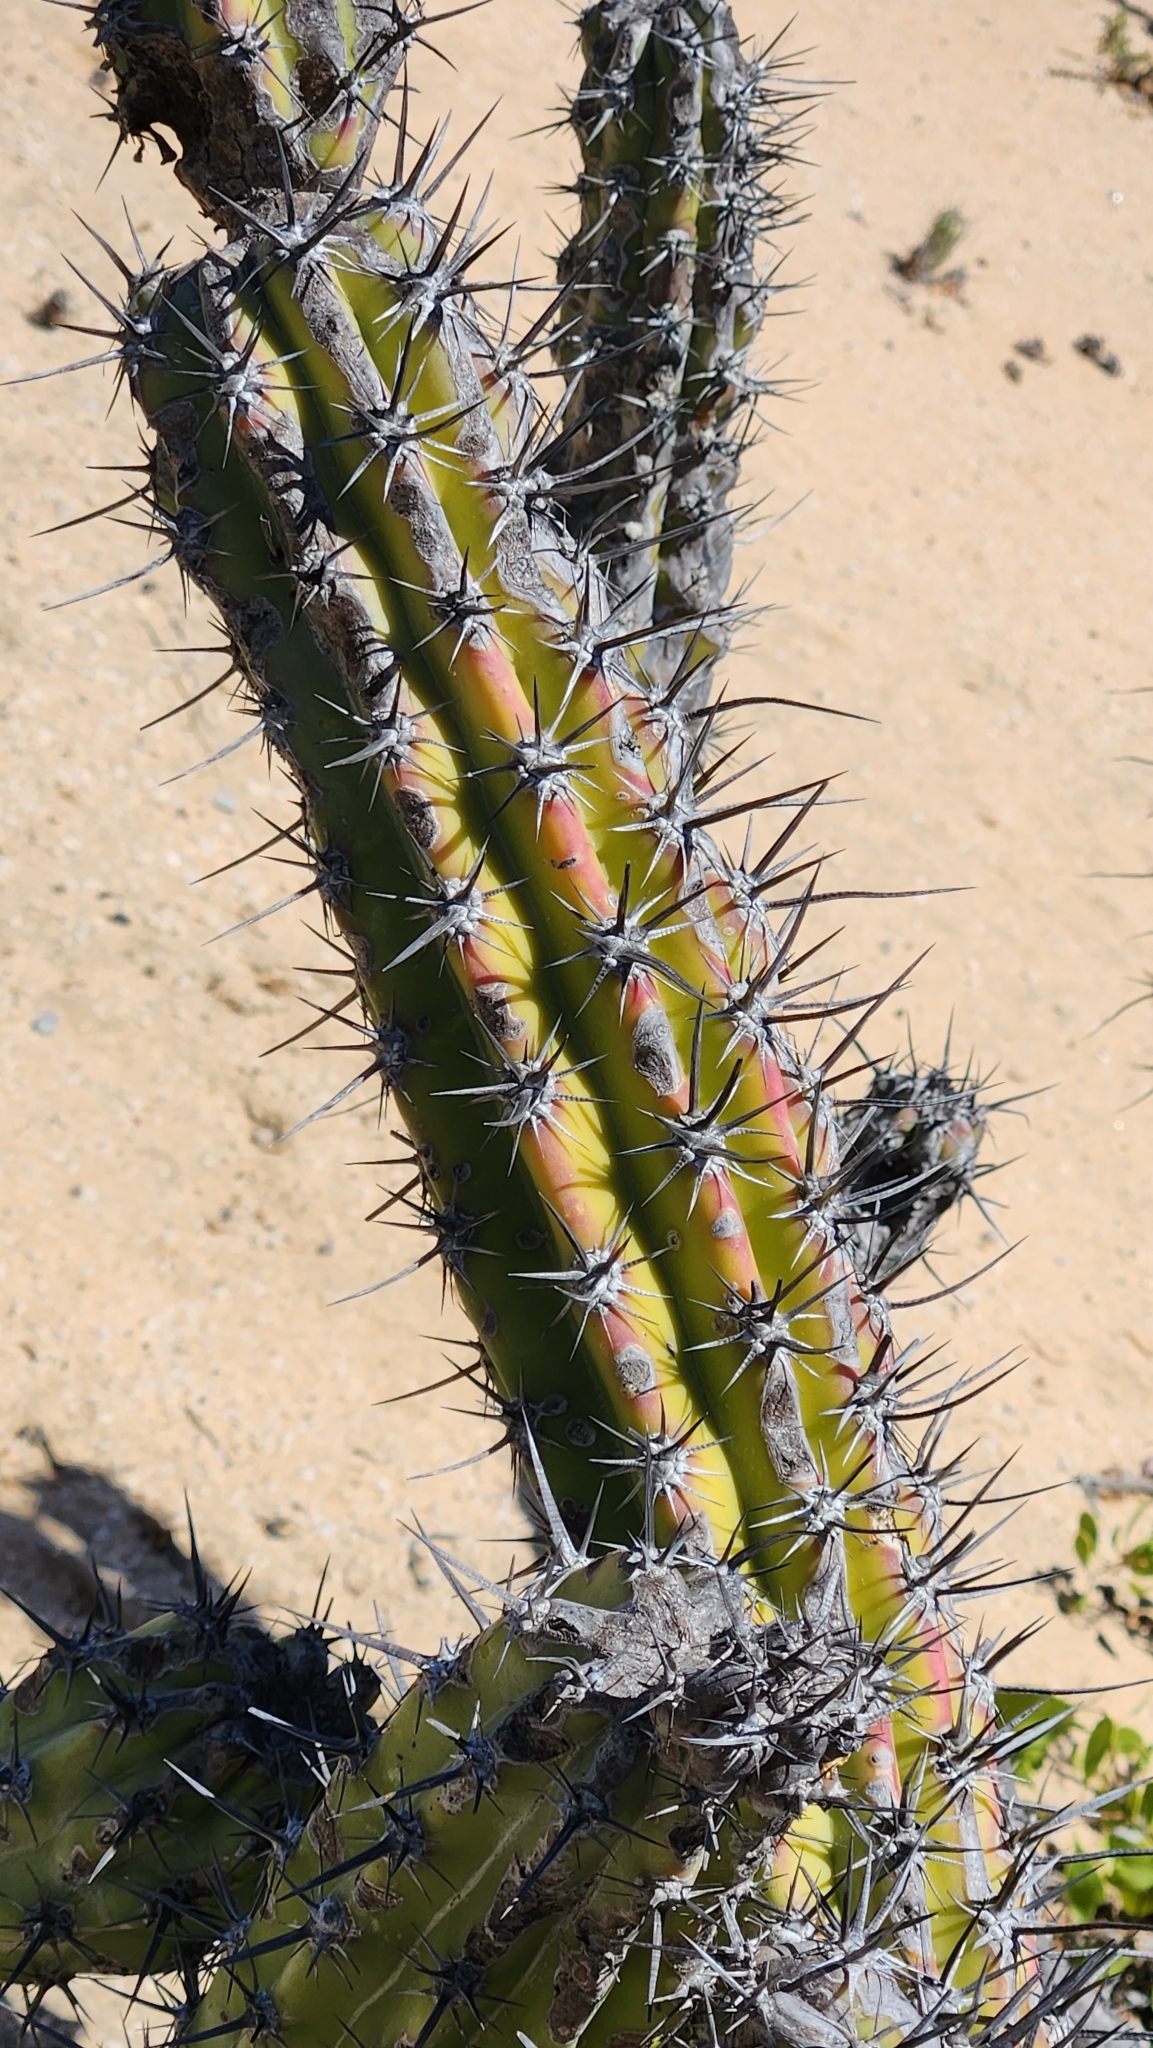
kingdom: Plantae
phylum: Tracheophyta
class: Magnoliopsida
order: Caryophyllales
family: Cactaceae
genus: Stenocereus
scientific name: Stenocereus gummosus
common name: Dagger cactus
